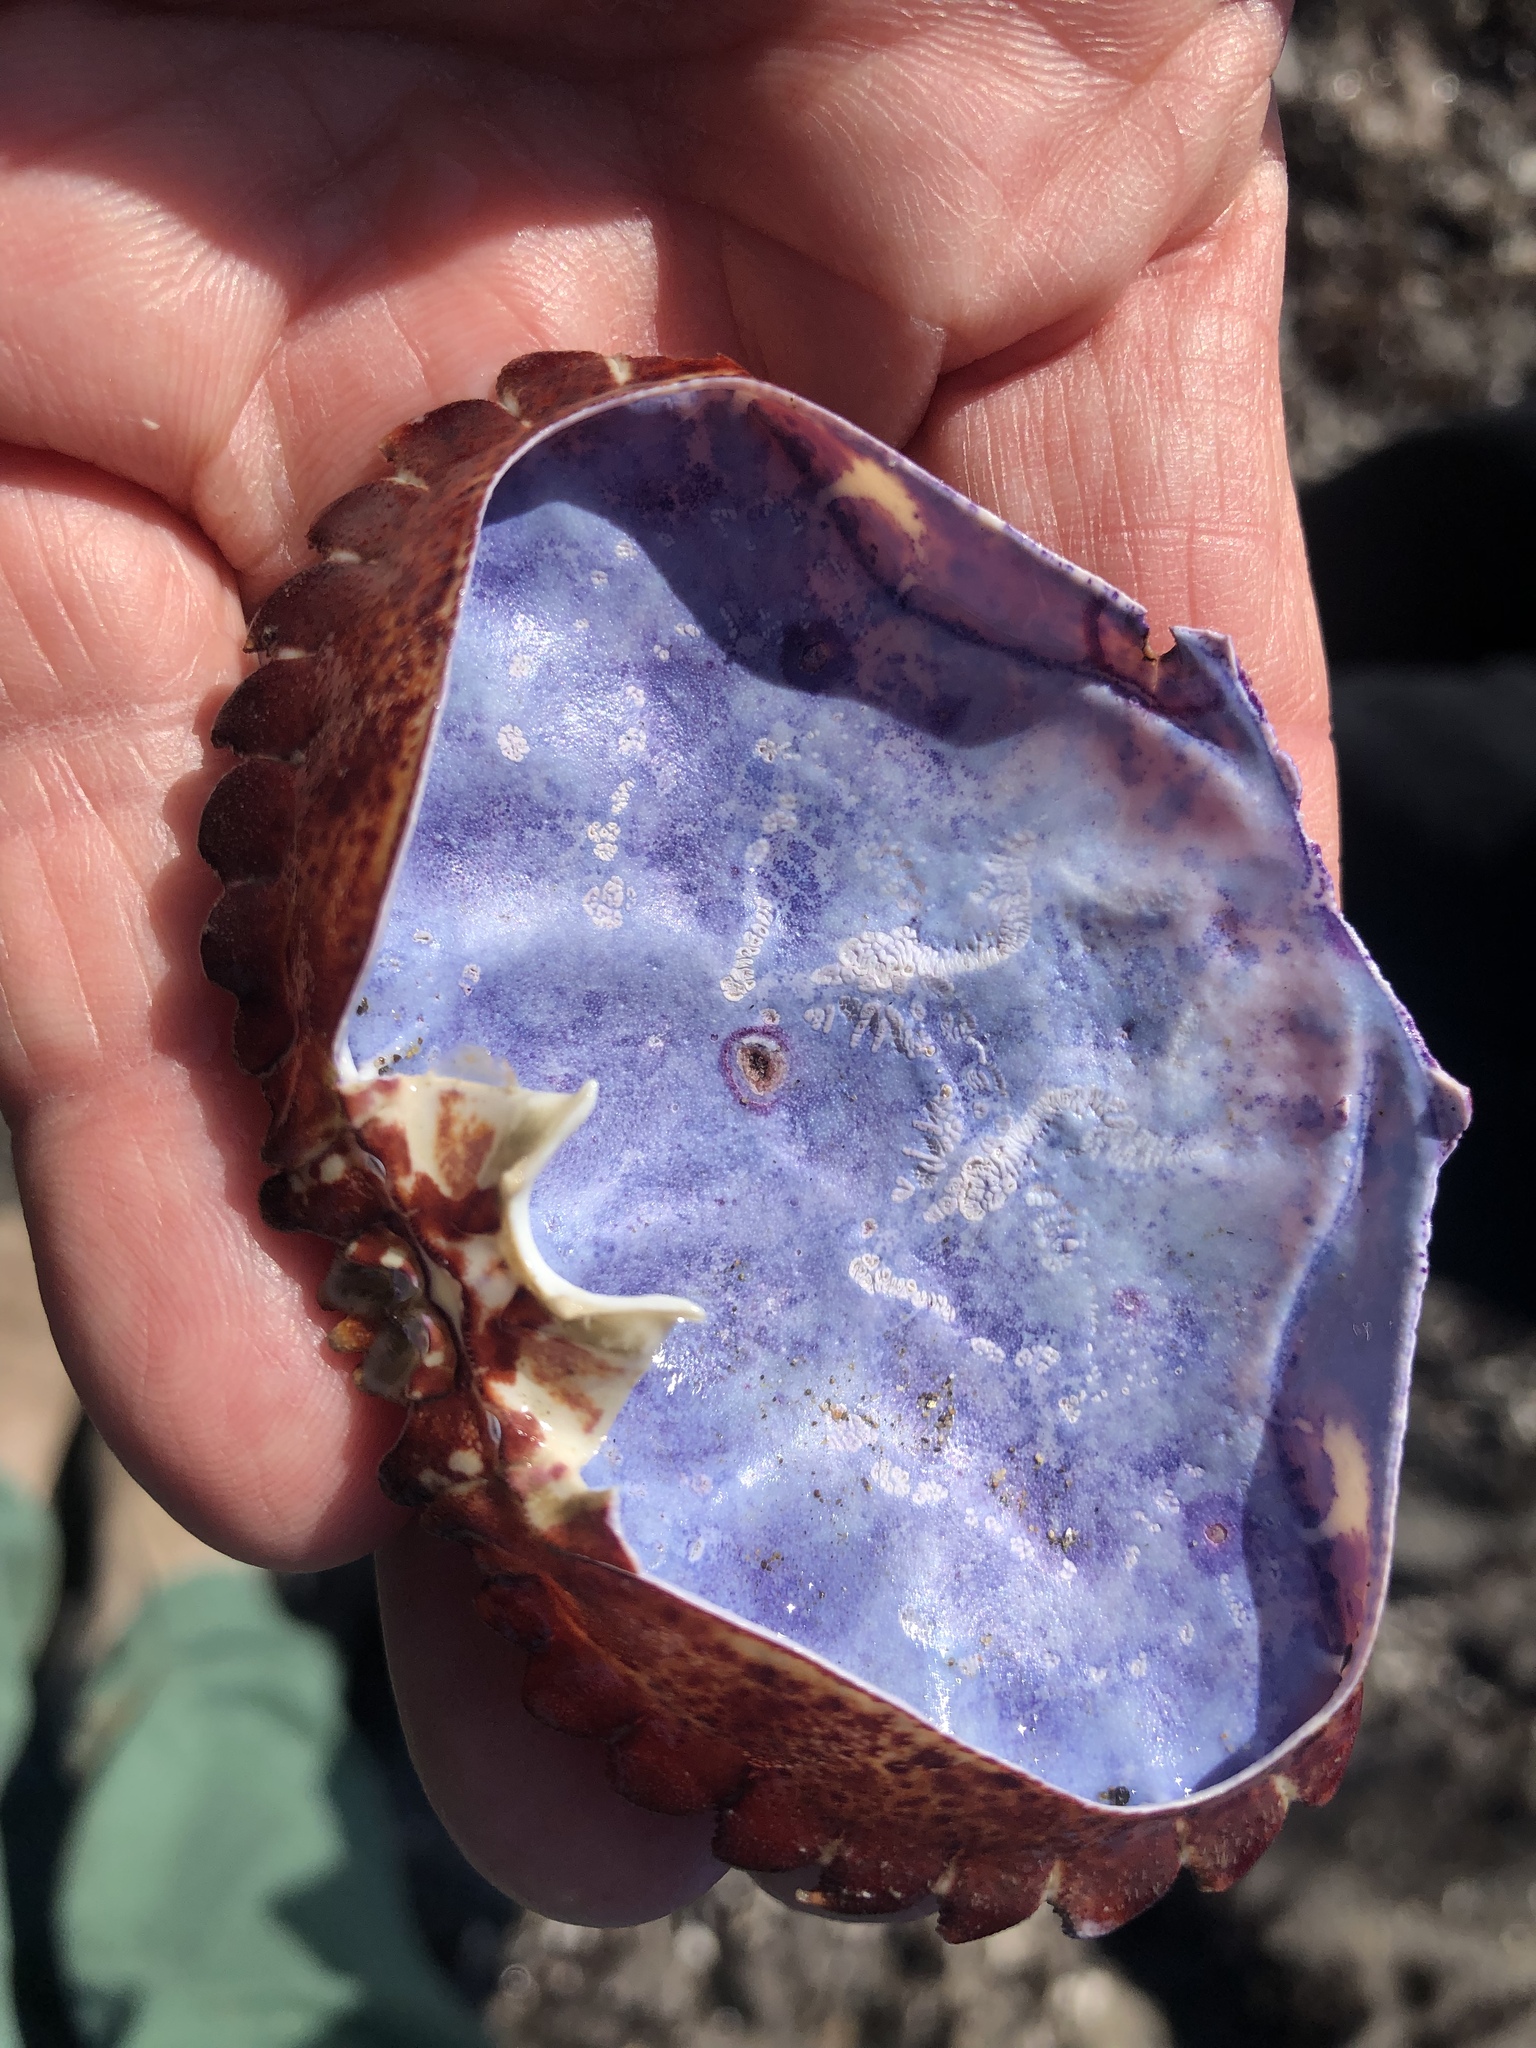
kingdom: Animalia
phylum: Arthropoda
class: Malacostraca
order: Decapoda
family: Cancridae
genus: Romaleon
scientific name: Romaleon antennarium
